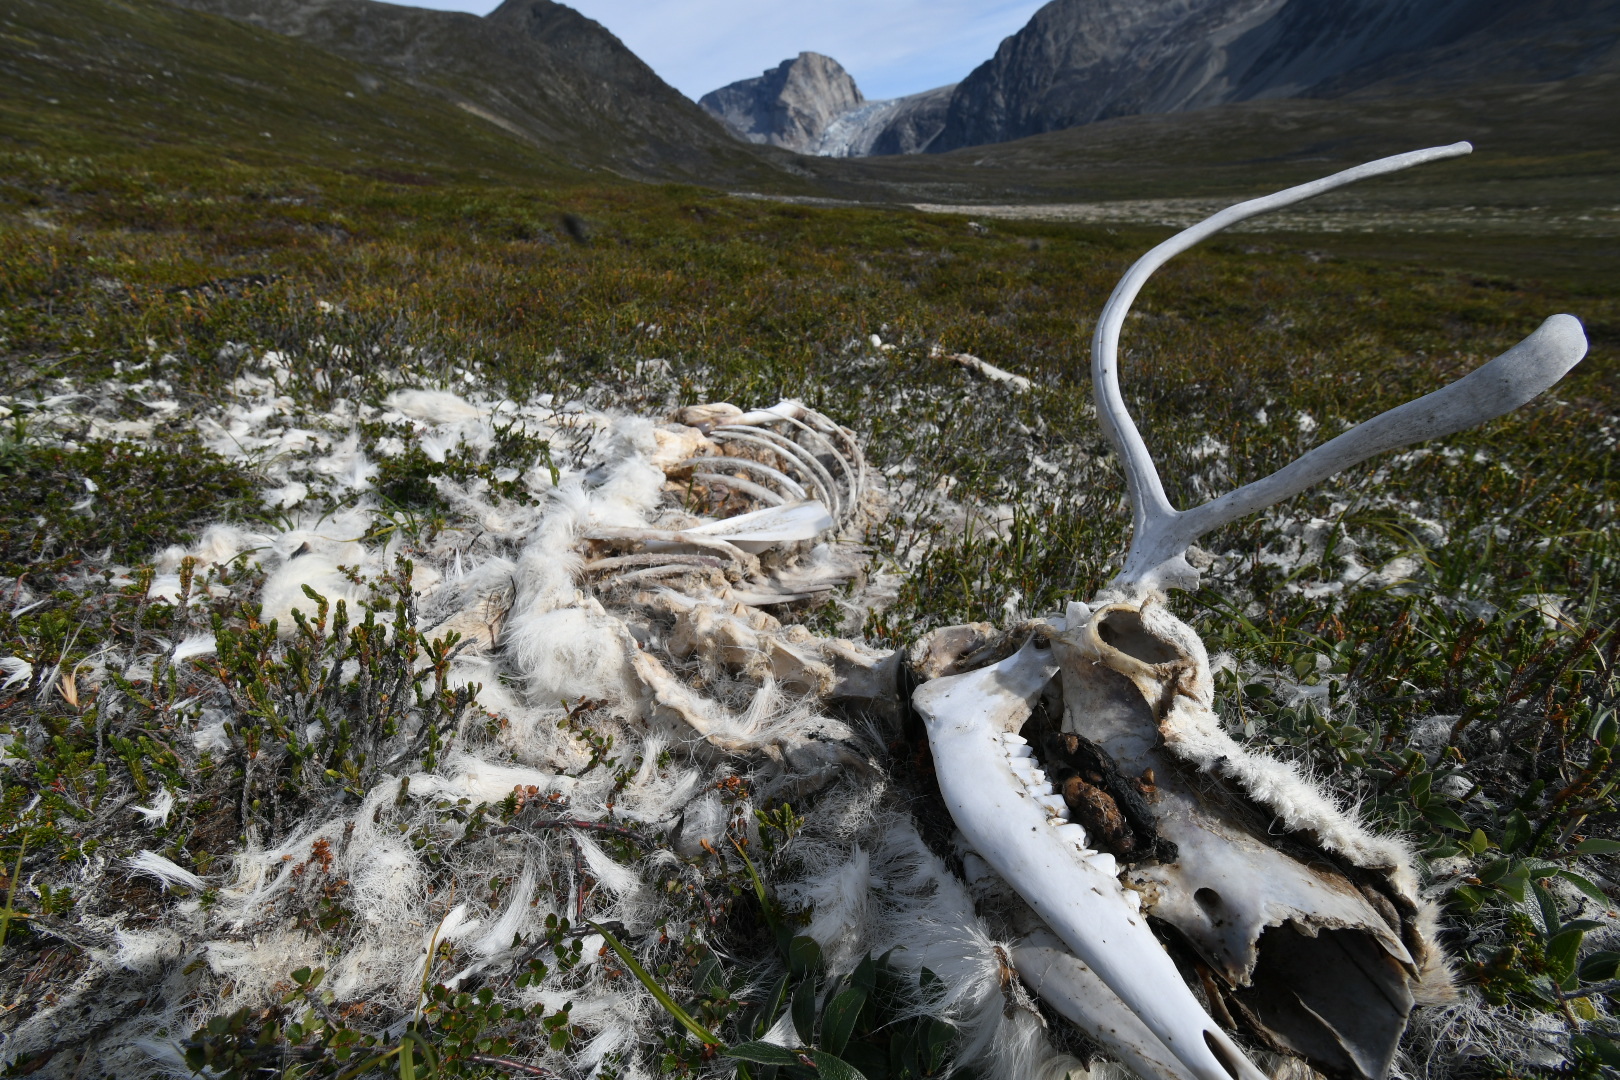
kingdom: Animalia
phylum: Chordata
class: Mammalia
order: Artiodactyla
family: Cervidae
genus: Rangifer
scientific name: Rangifer tarandus
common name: Reindeer
